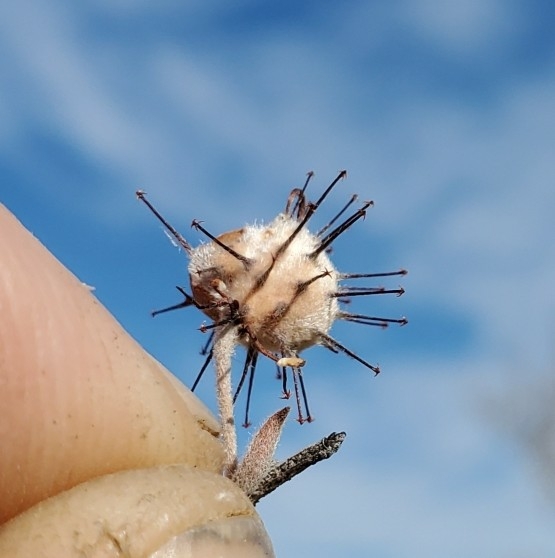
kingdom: Plantae
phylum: Tracheophyta
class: Magnoliopsida
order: Zygophyllales
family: Krameriaceae
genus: Krameria
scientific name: Krameria bicolor
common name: White ratany
